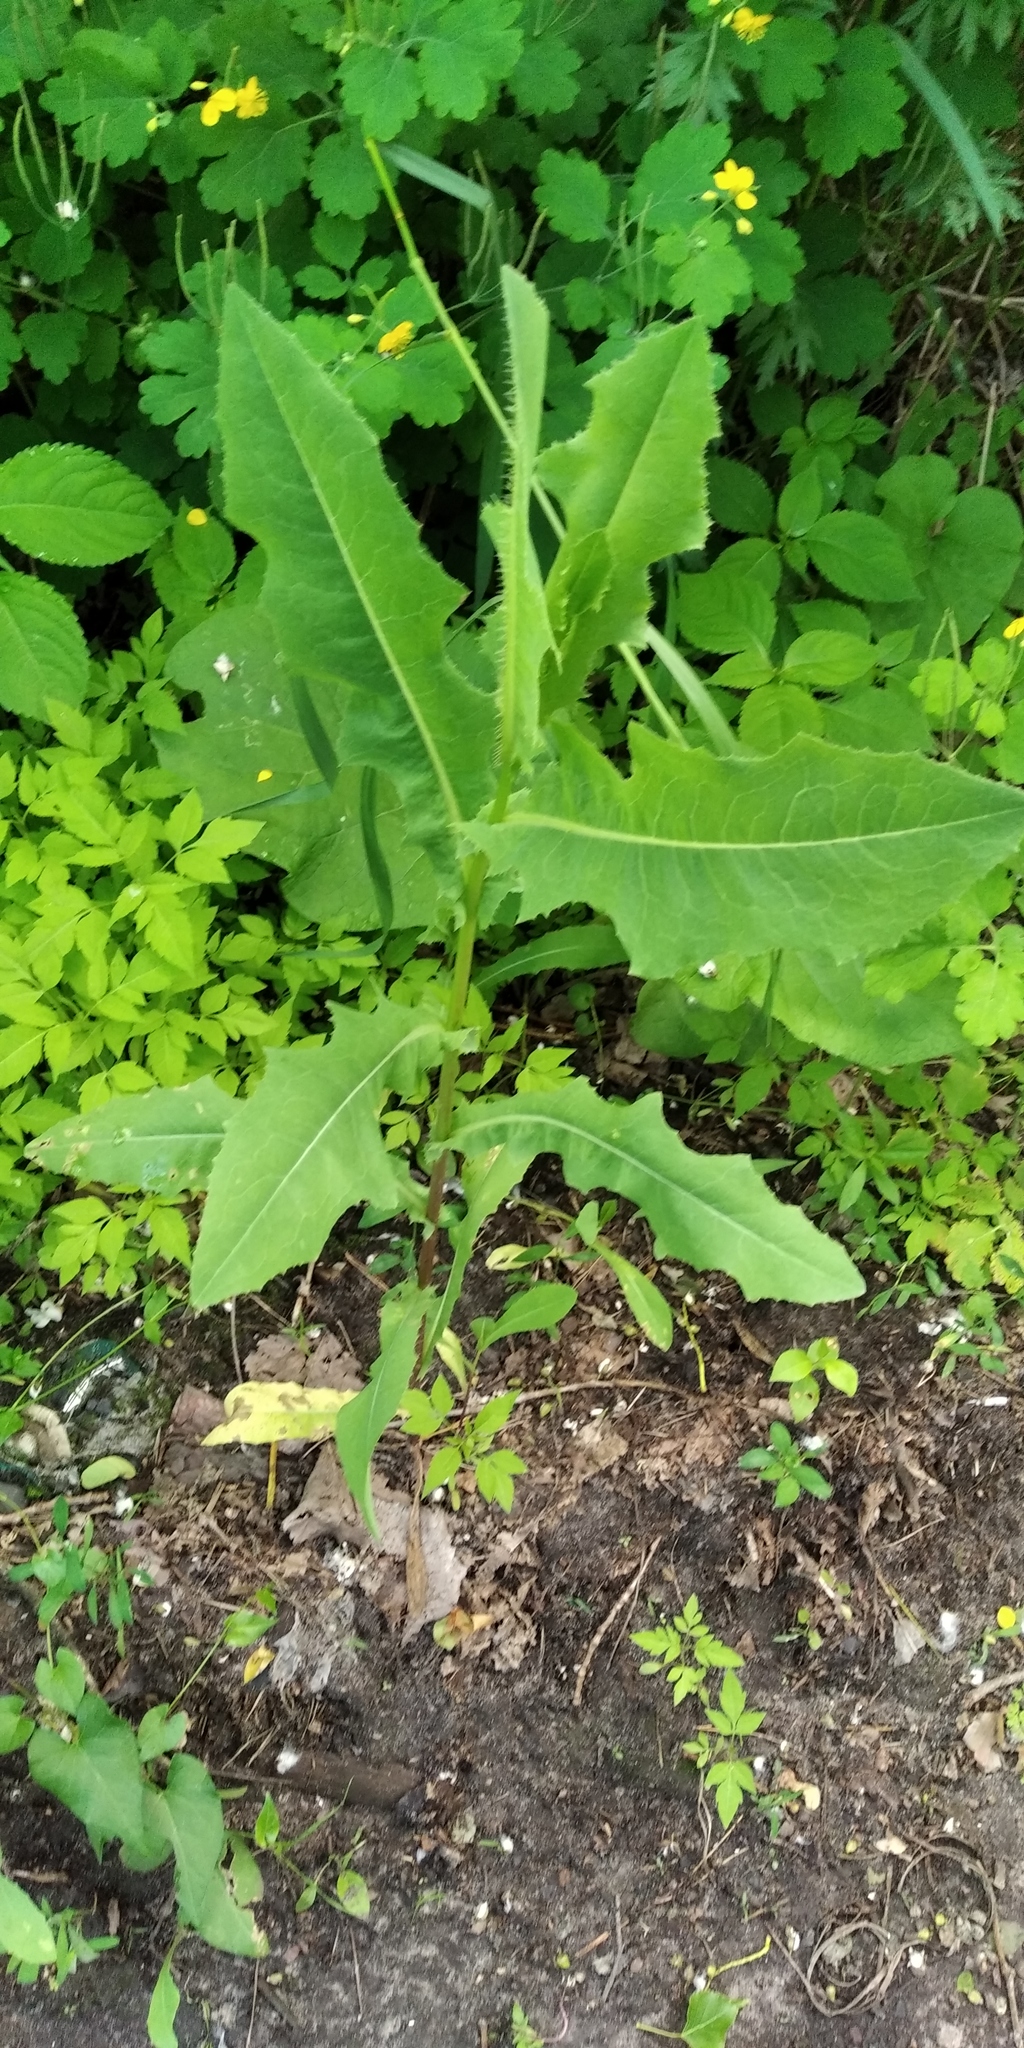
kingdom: Plantae
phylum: Tracheophyta
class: Magnoliopsida
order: Asterales
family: Asteraceae
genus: Lactuca
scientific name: Lactuca serriola
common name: Prickly lettuce
